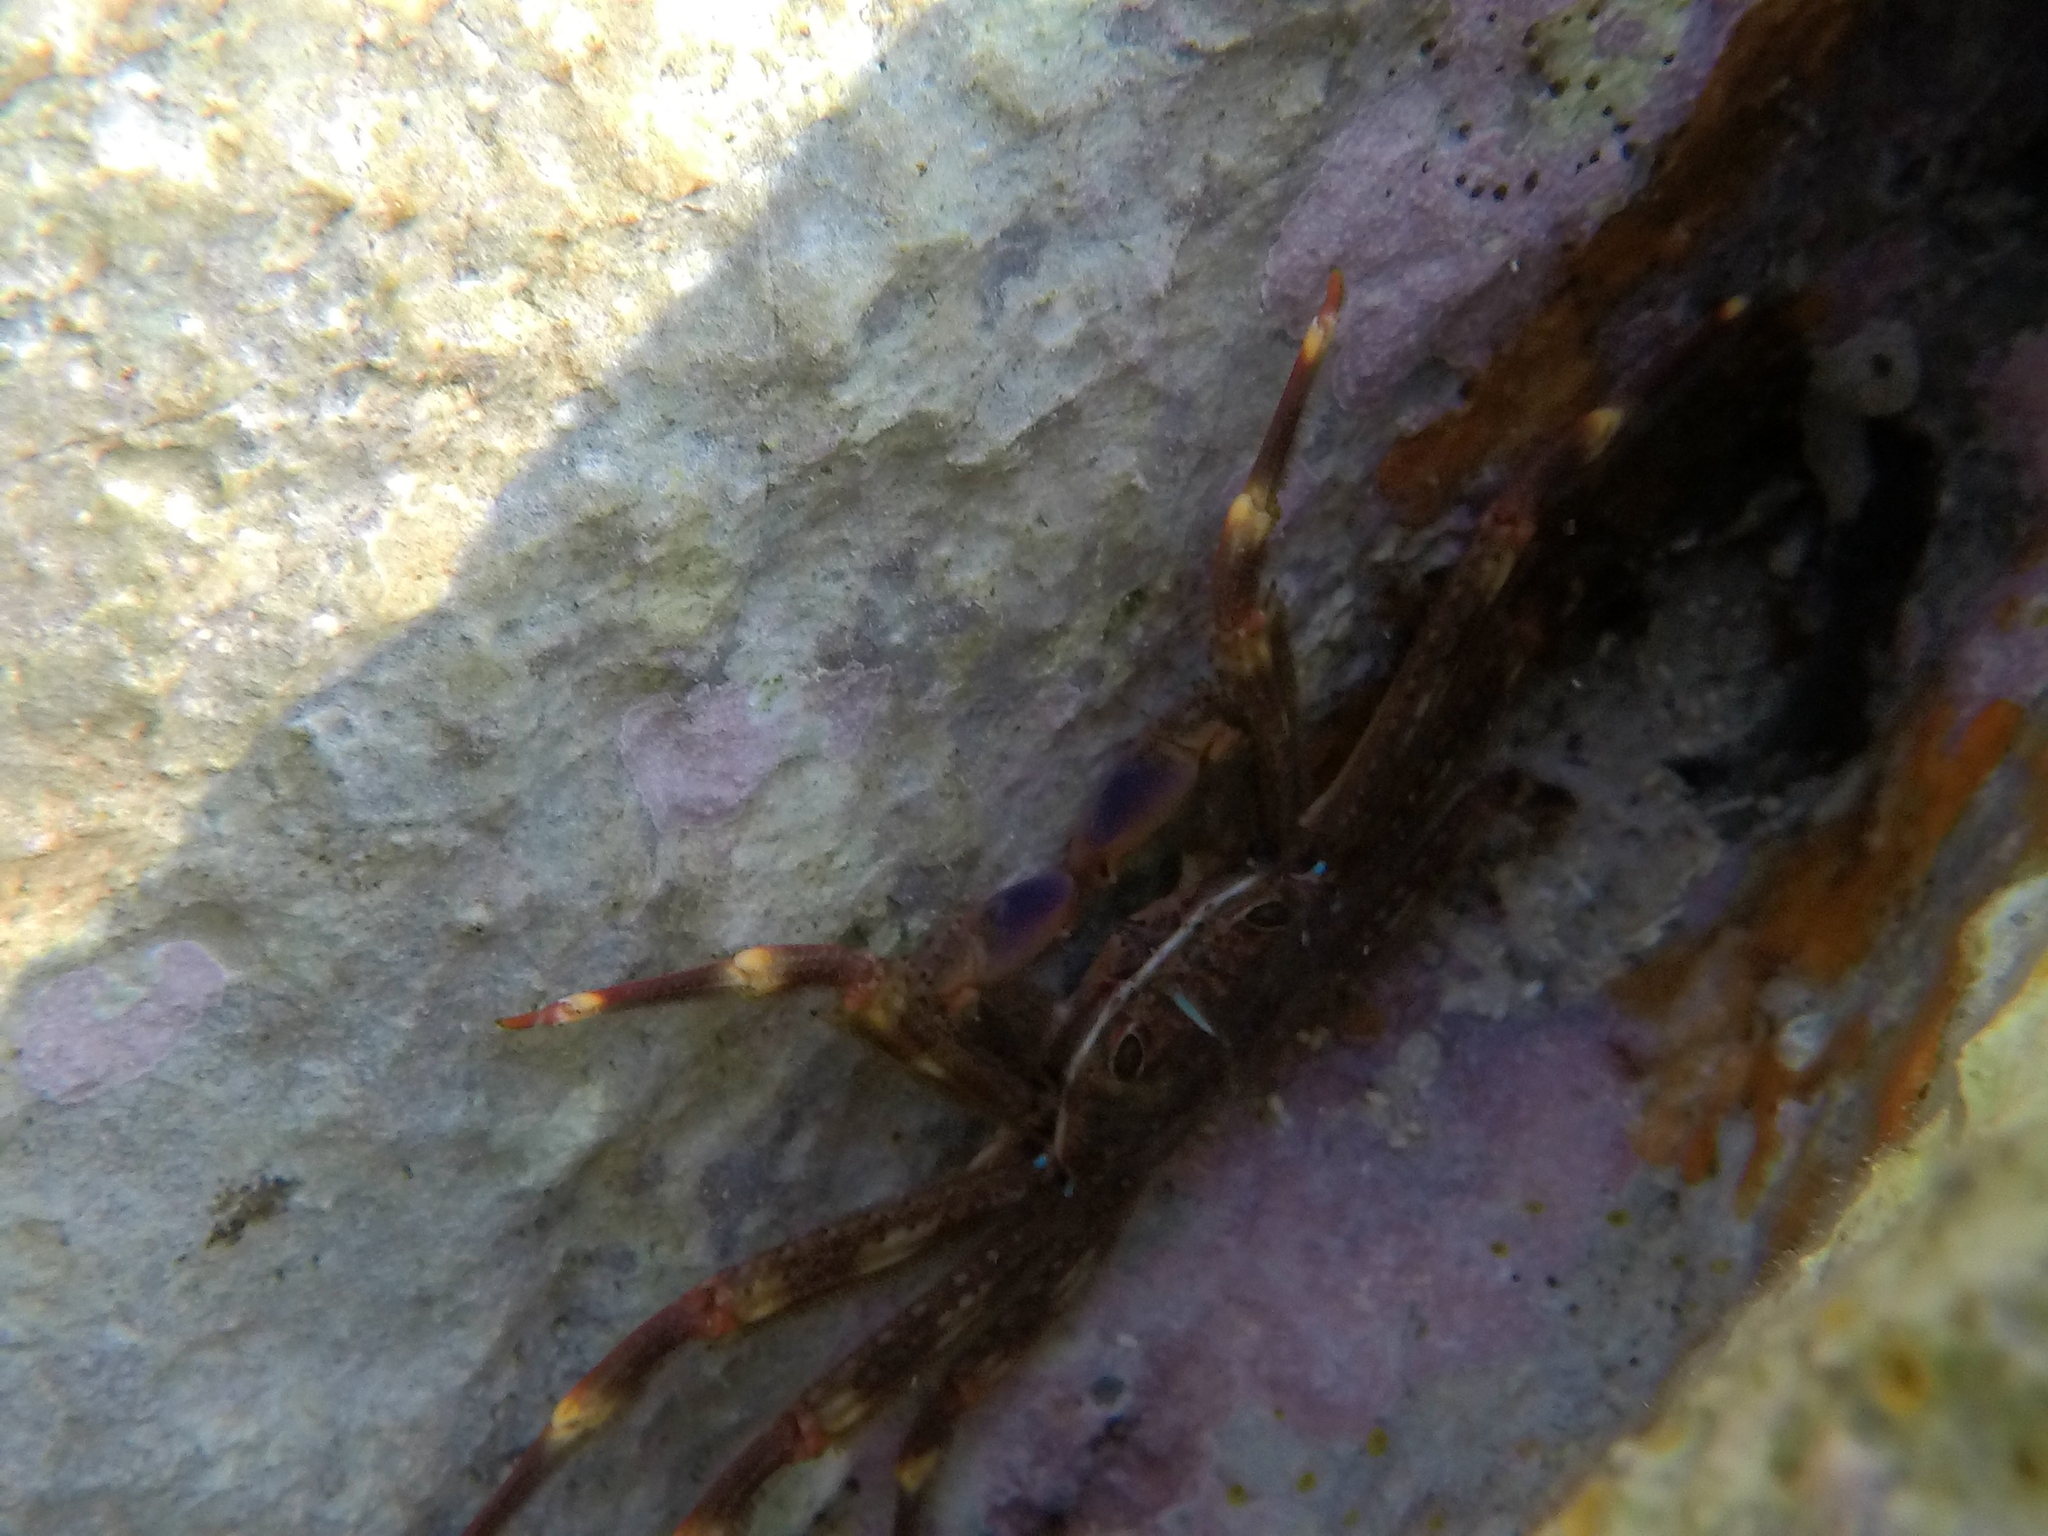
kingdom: Animalia
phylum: Arthropoda
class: Malacostraca
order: Decapoda
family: Percnidae
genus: Percnon
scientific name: Percnon gibbesi
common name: Nimble spray crab
